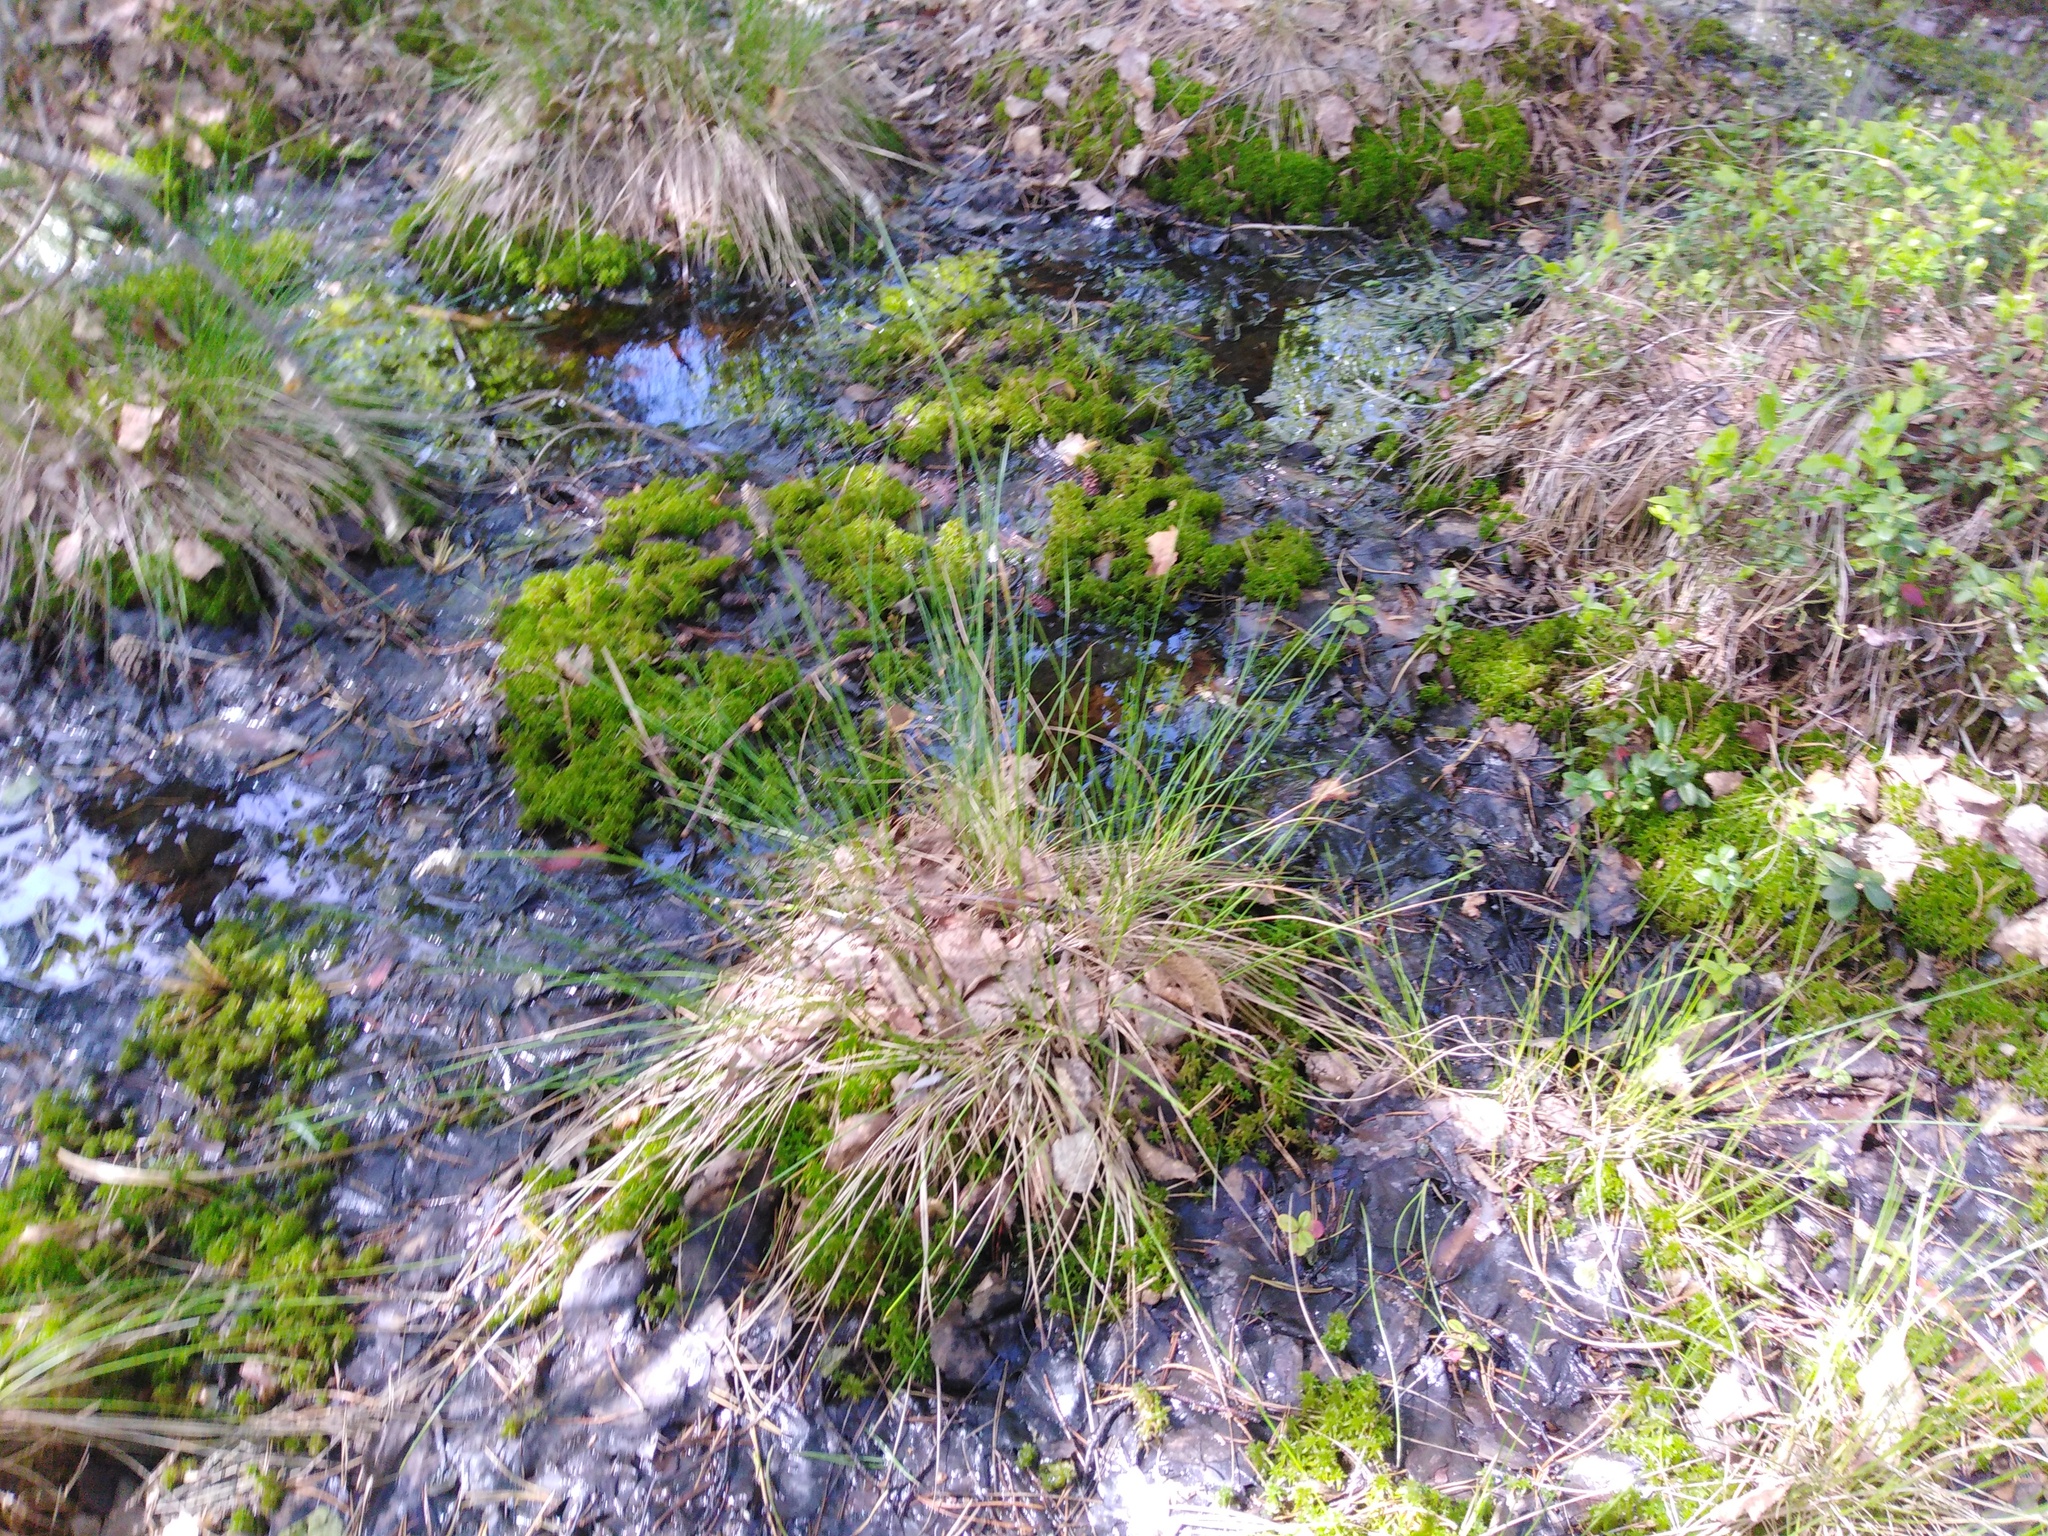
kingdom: Plantae
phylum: Tracheophyta
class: Liliopsida
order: Poales
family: Cyperaceae
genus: Eriophorum
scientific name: Eriophorum vaginatum
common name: Hare's-tail cottongrass
